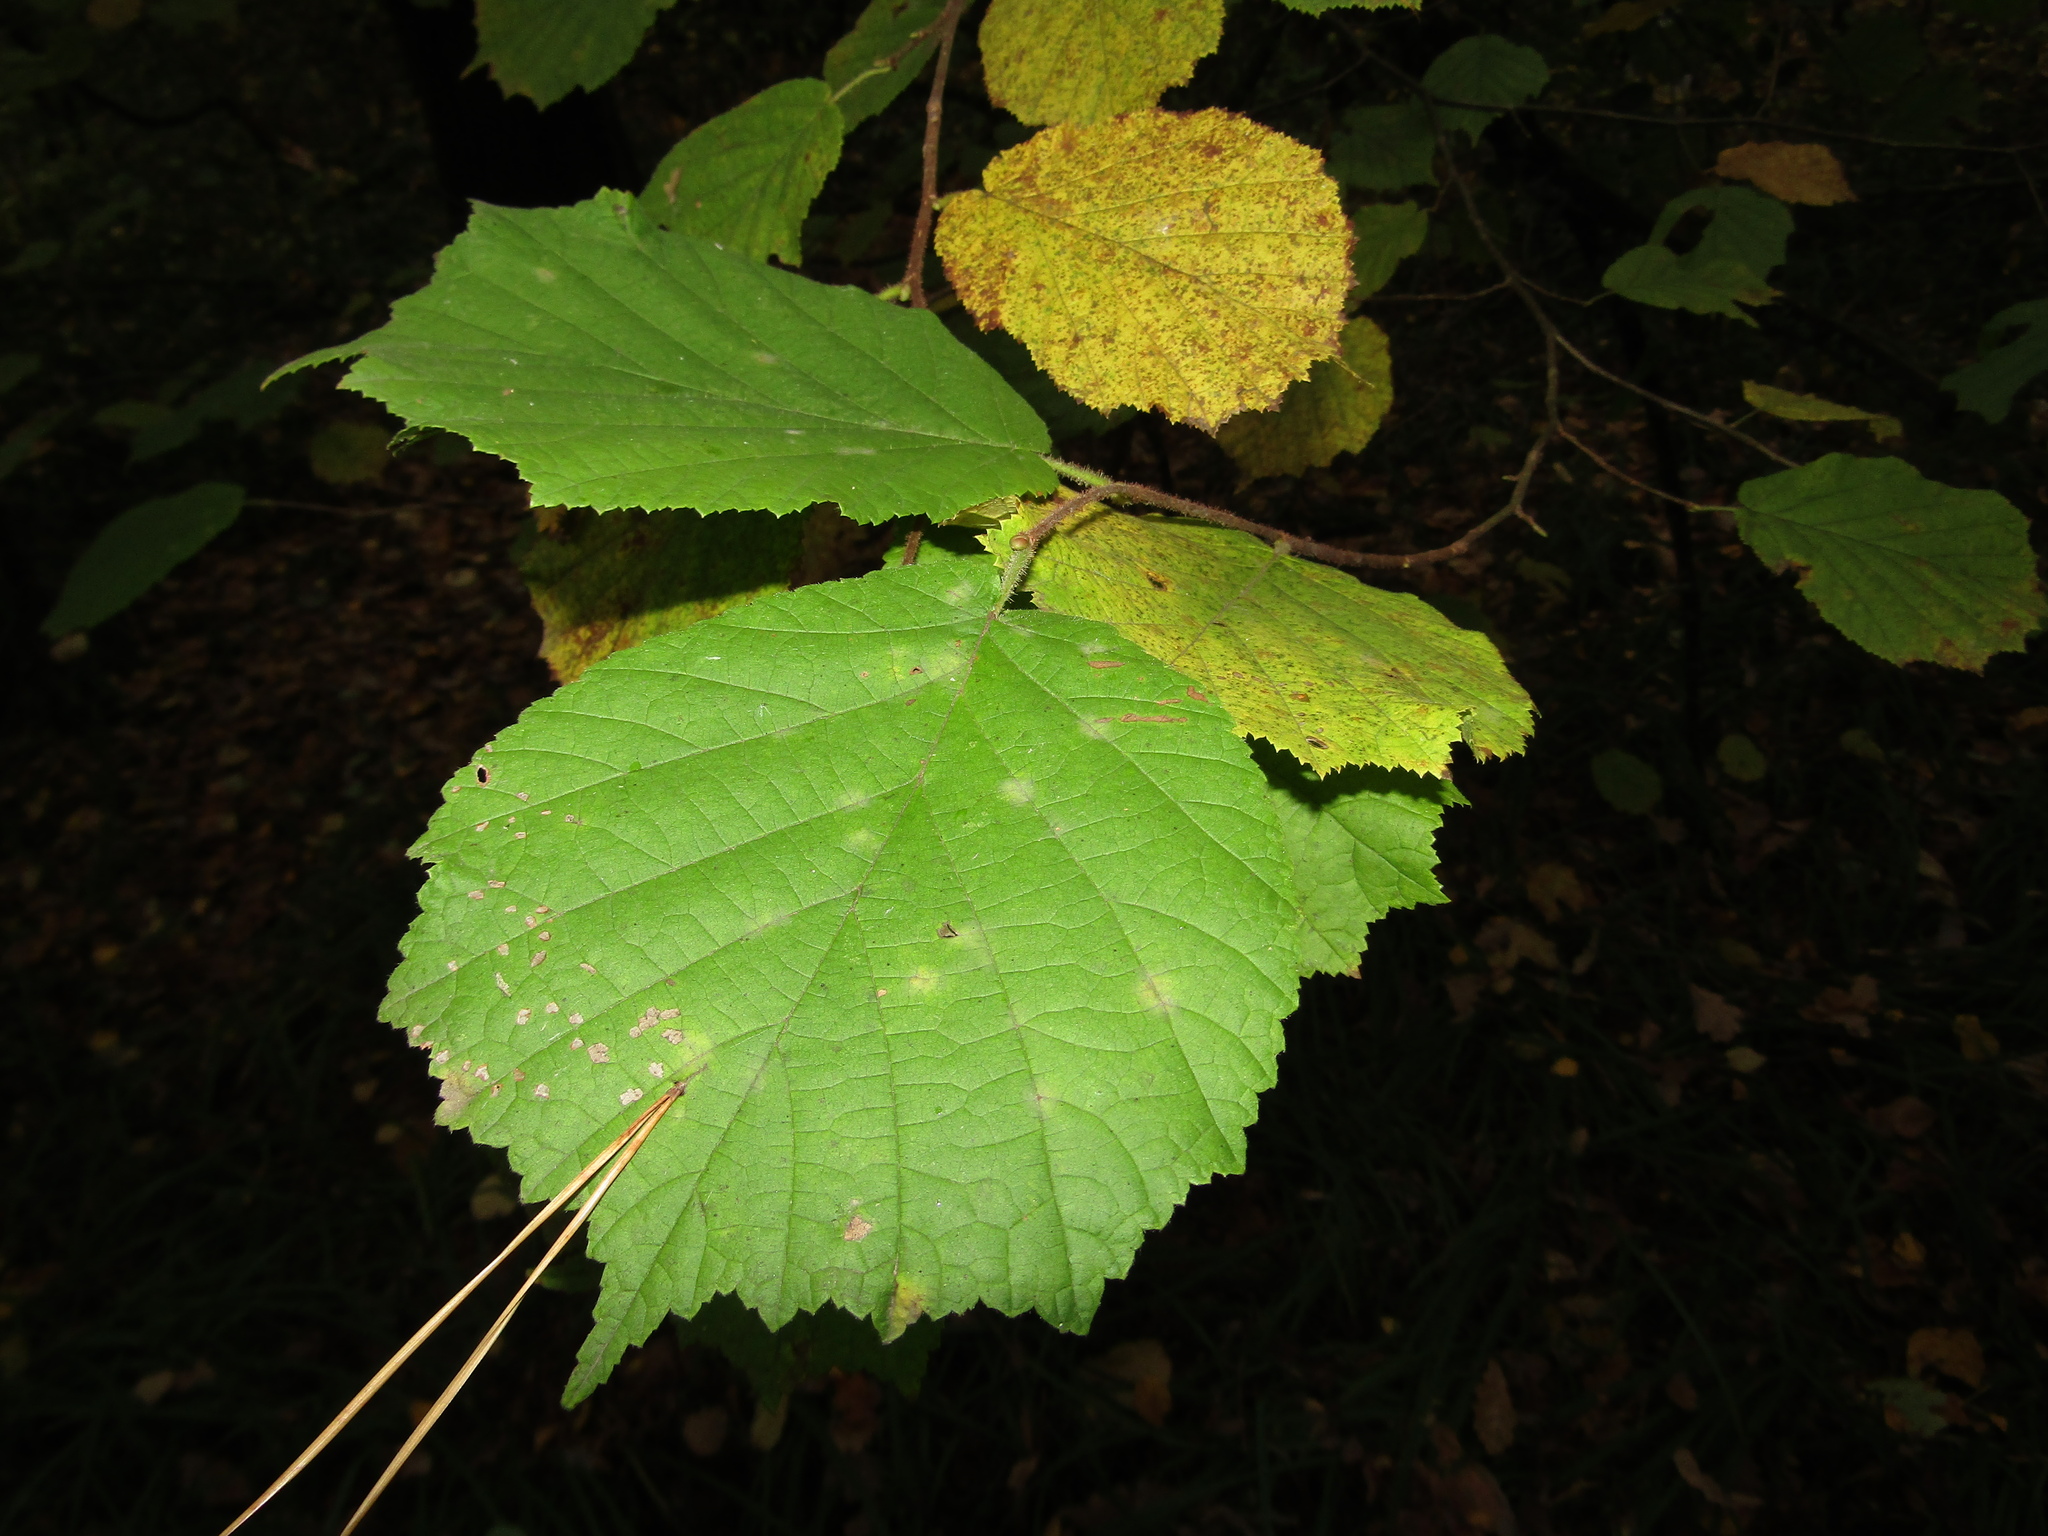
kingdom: Plantae
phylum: Tracheophyta
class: Magnoliopsida
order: Fagales
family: Betulaceae
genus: Corylus
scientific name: Corylus avellana
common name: European hazel
